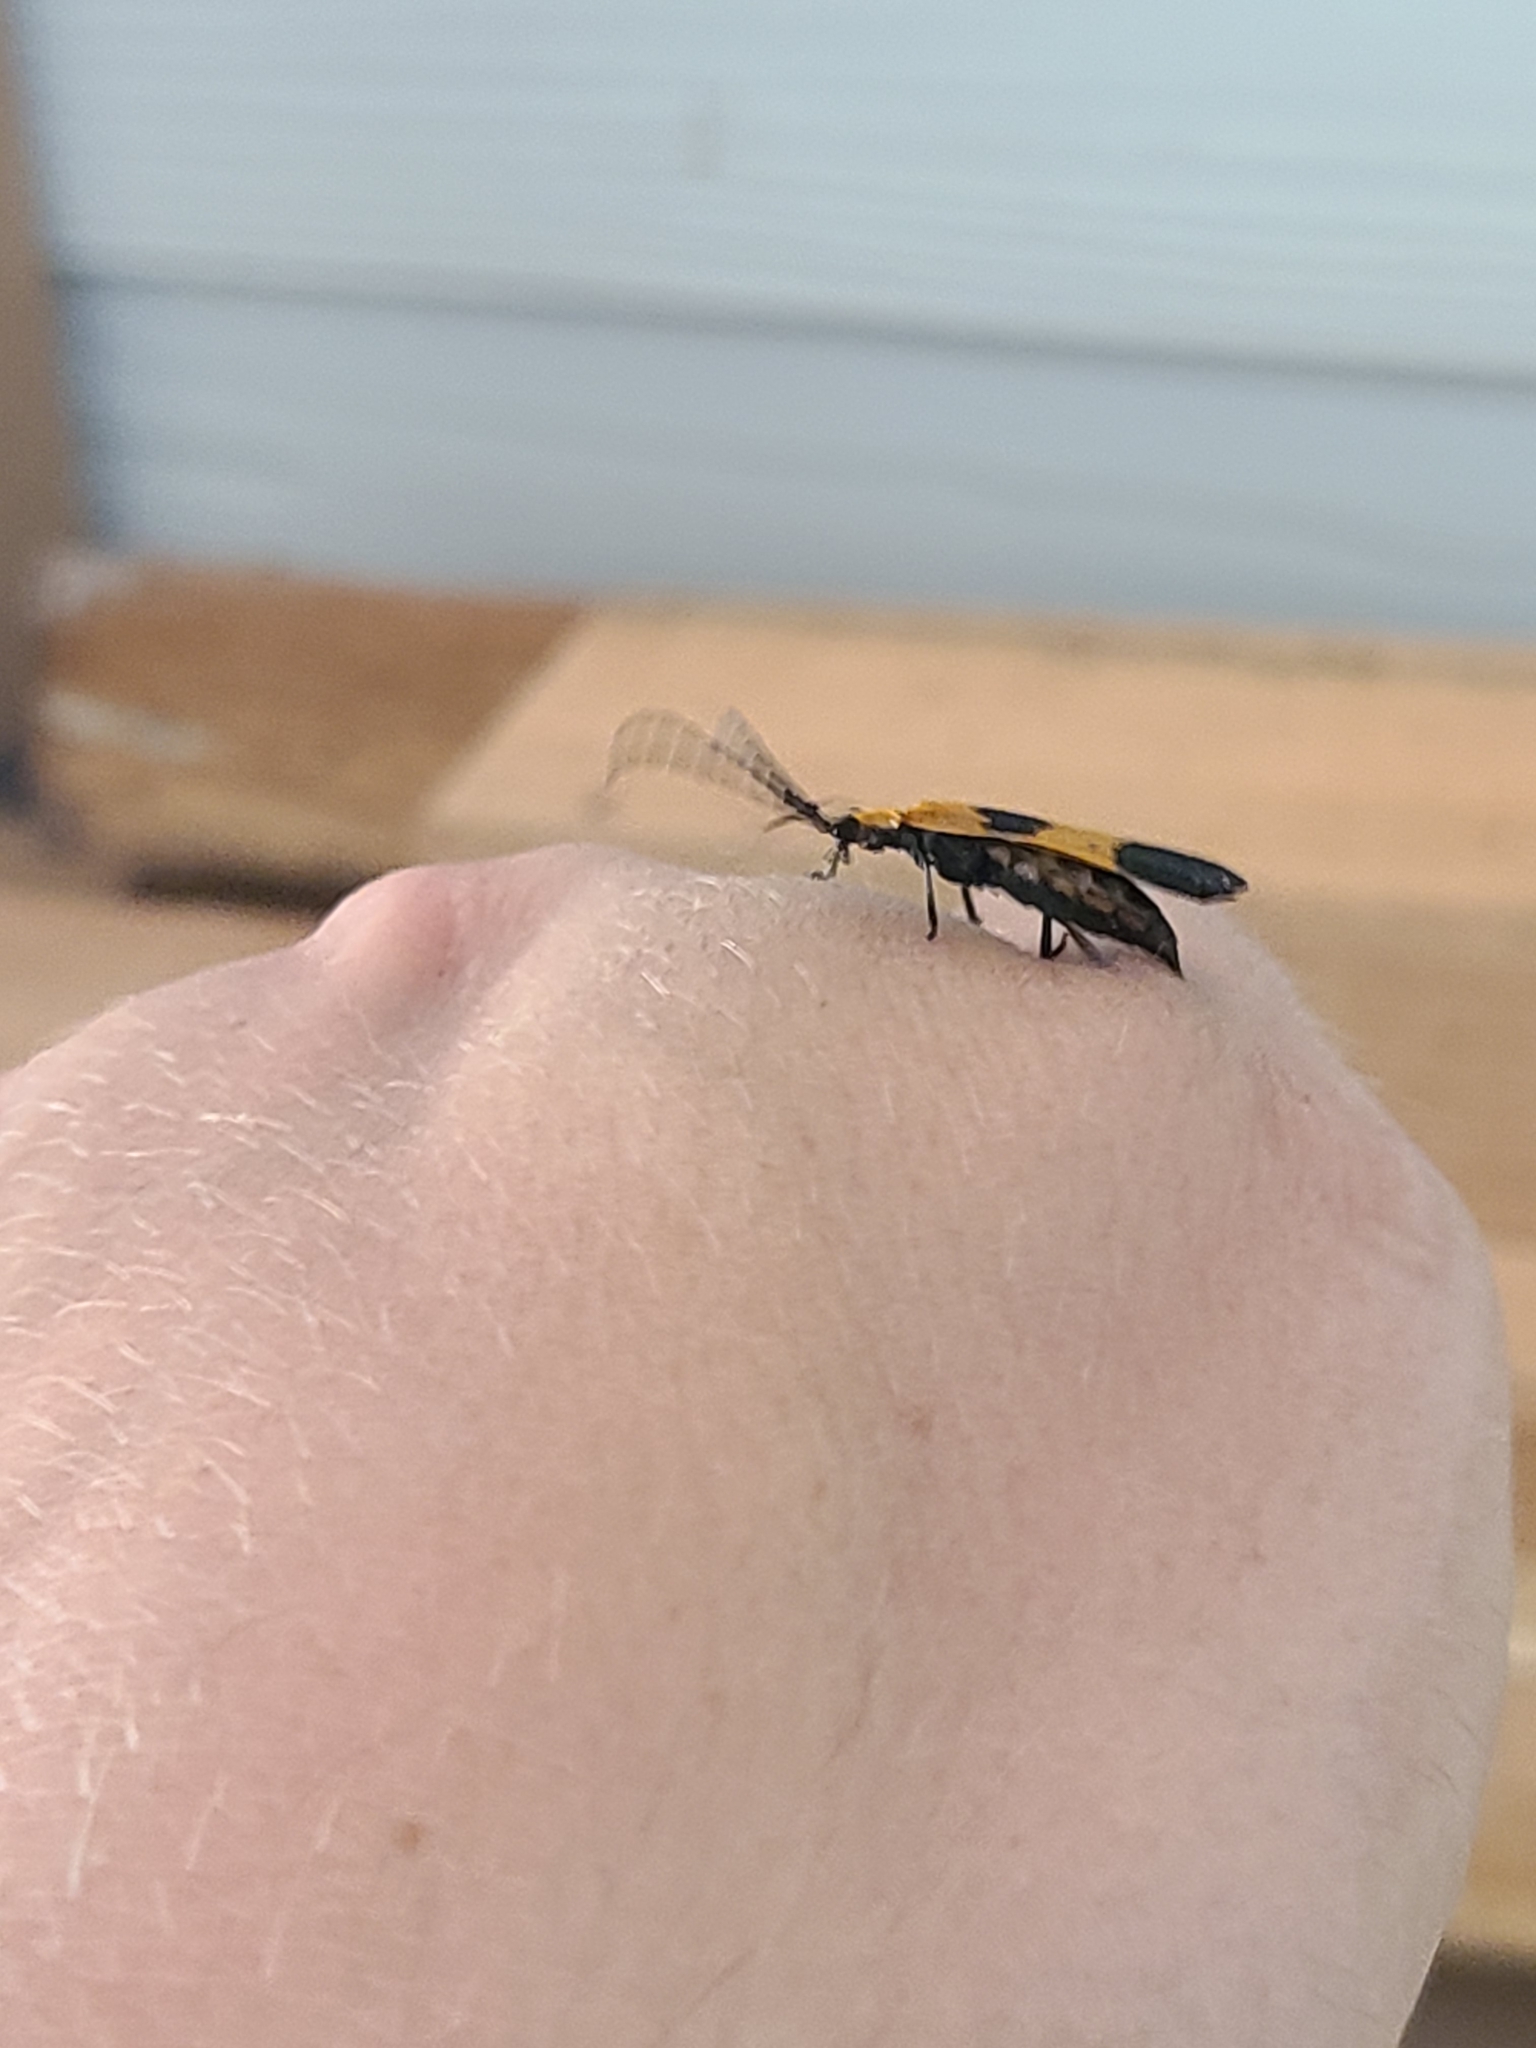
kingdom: Animalia
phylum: Arthropoda
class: Insecta
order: Coleoptera
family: Lycidae
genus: Calopteron
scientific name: Calopteron reticulatum
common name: Banded net-winged beetle
